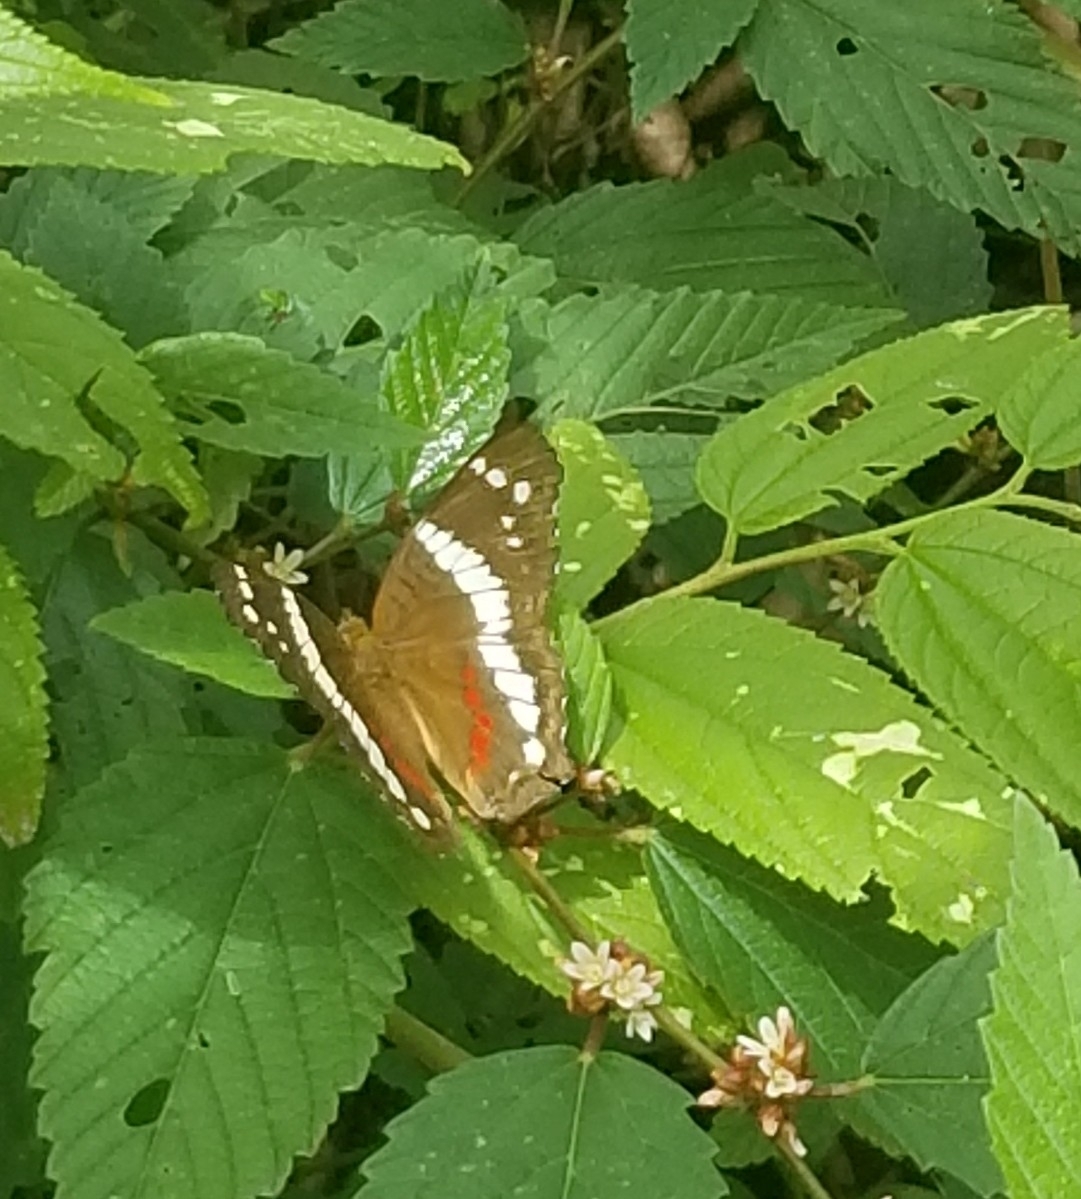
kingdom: Animalia
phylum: Arthropoda
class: Insecta
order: Lepidoptera
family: Nymphalidae
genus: Anartia
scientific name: Anartia fatima
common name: Banded peacock
